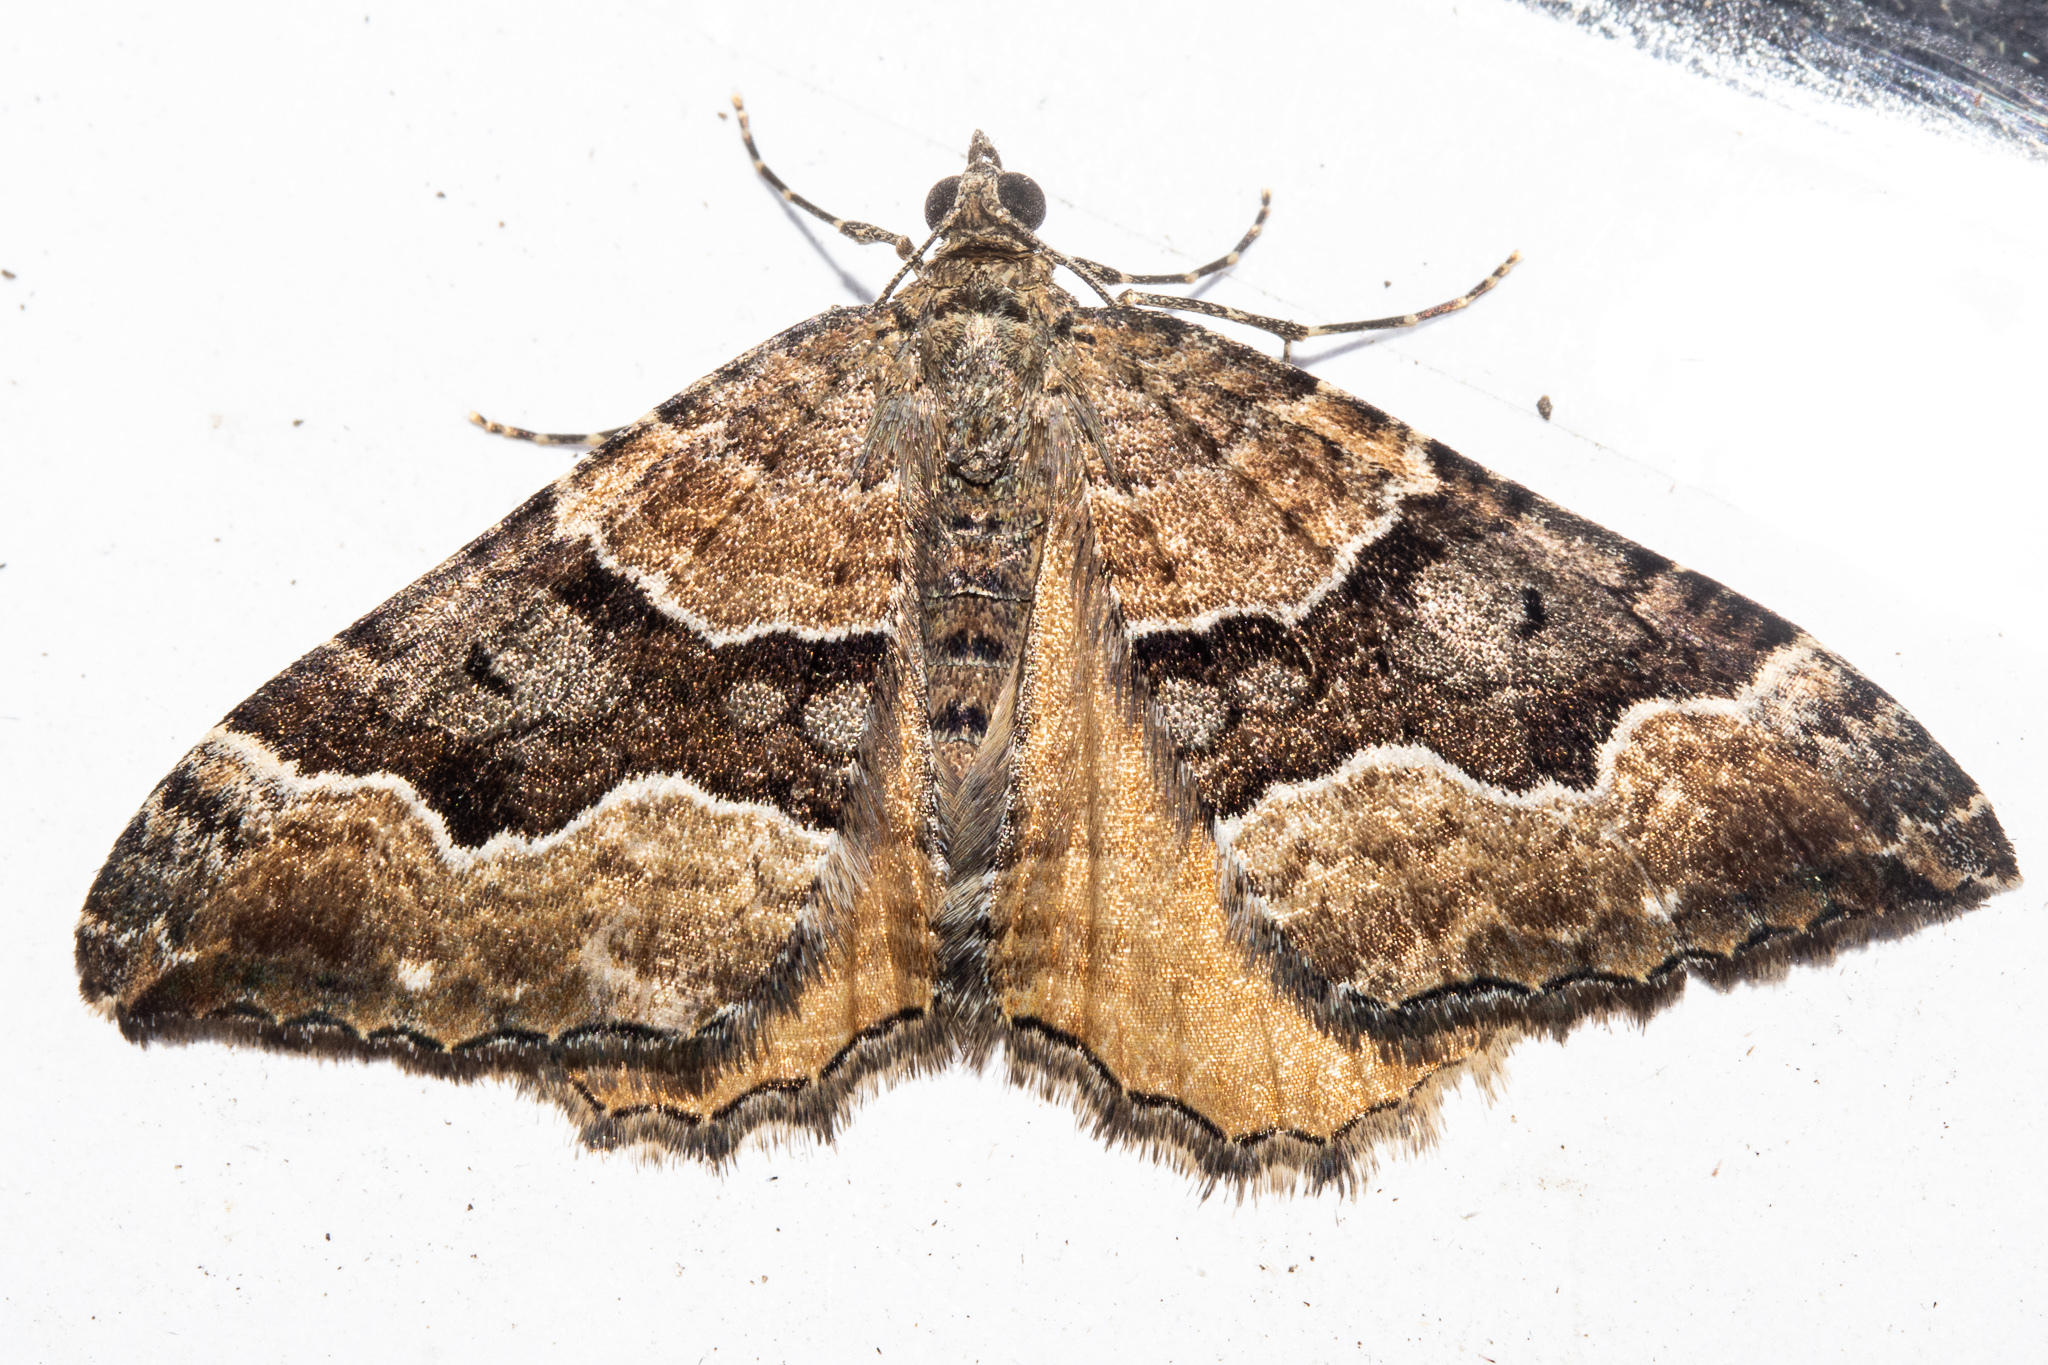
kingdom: Animalia
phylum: Arthropoda
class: Insecta
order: Lepidoptera
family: Geometridae
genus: Hydriomena
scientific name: Hydriomena deltoidata
